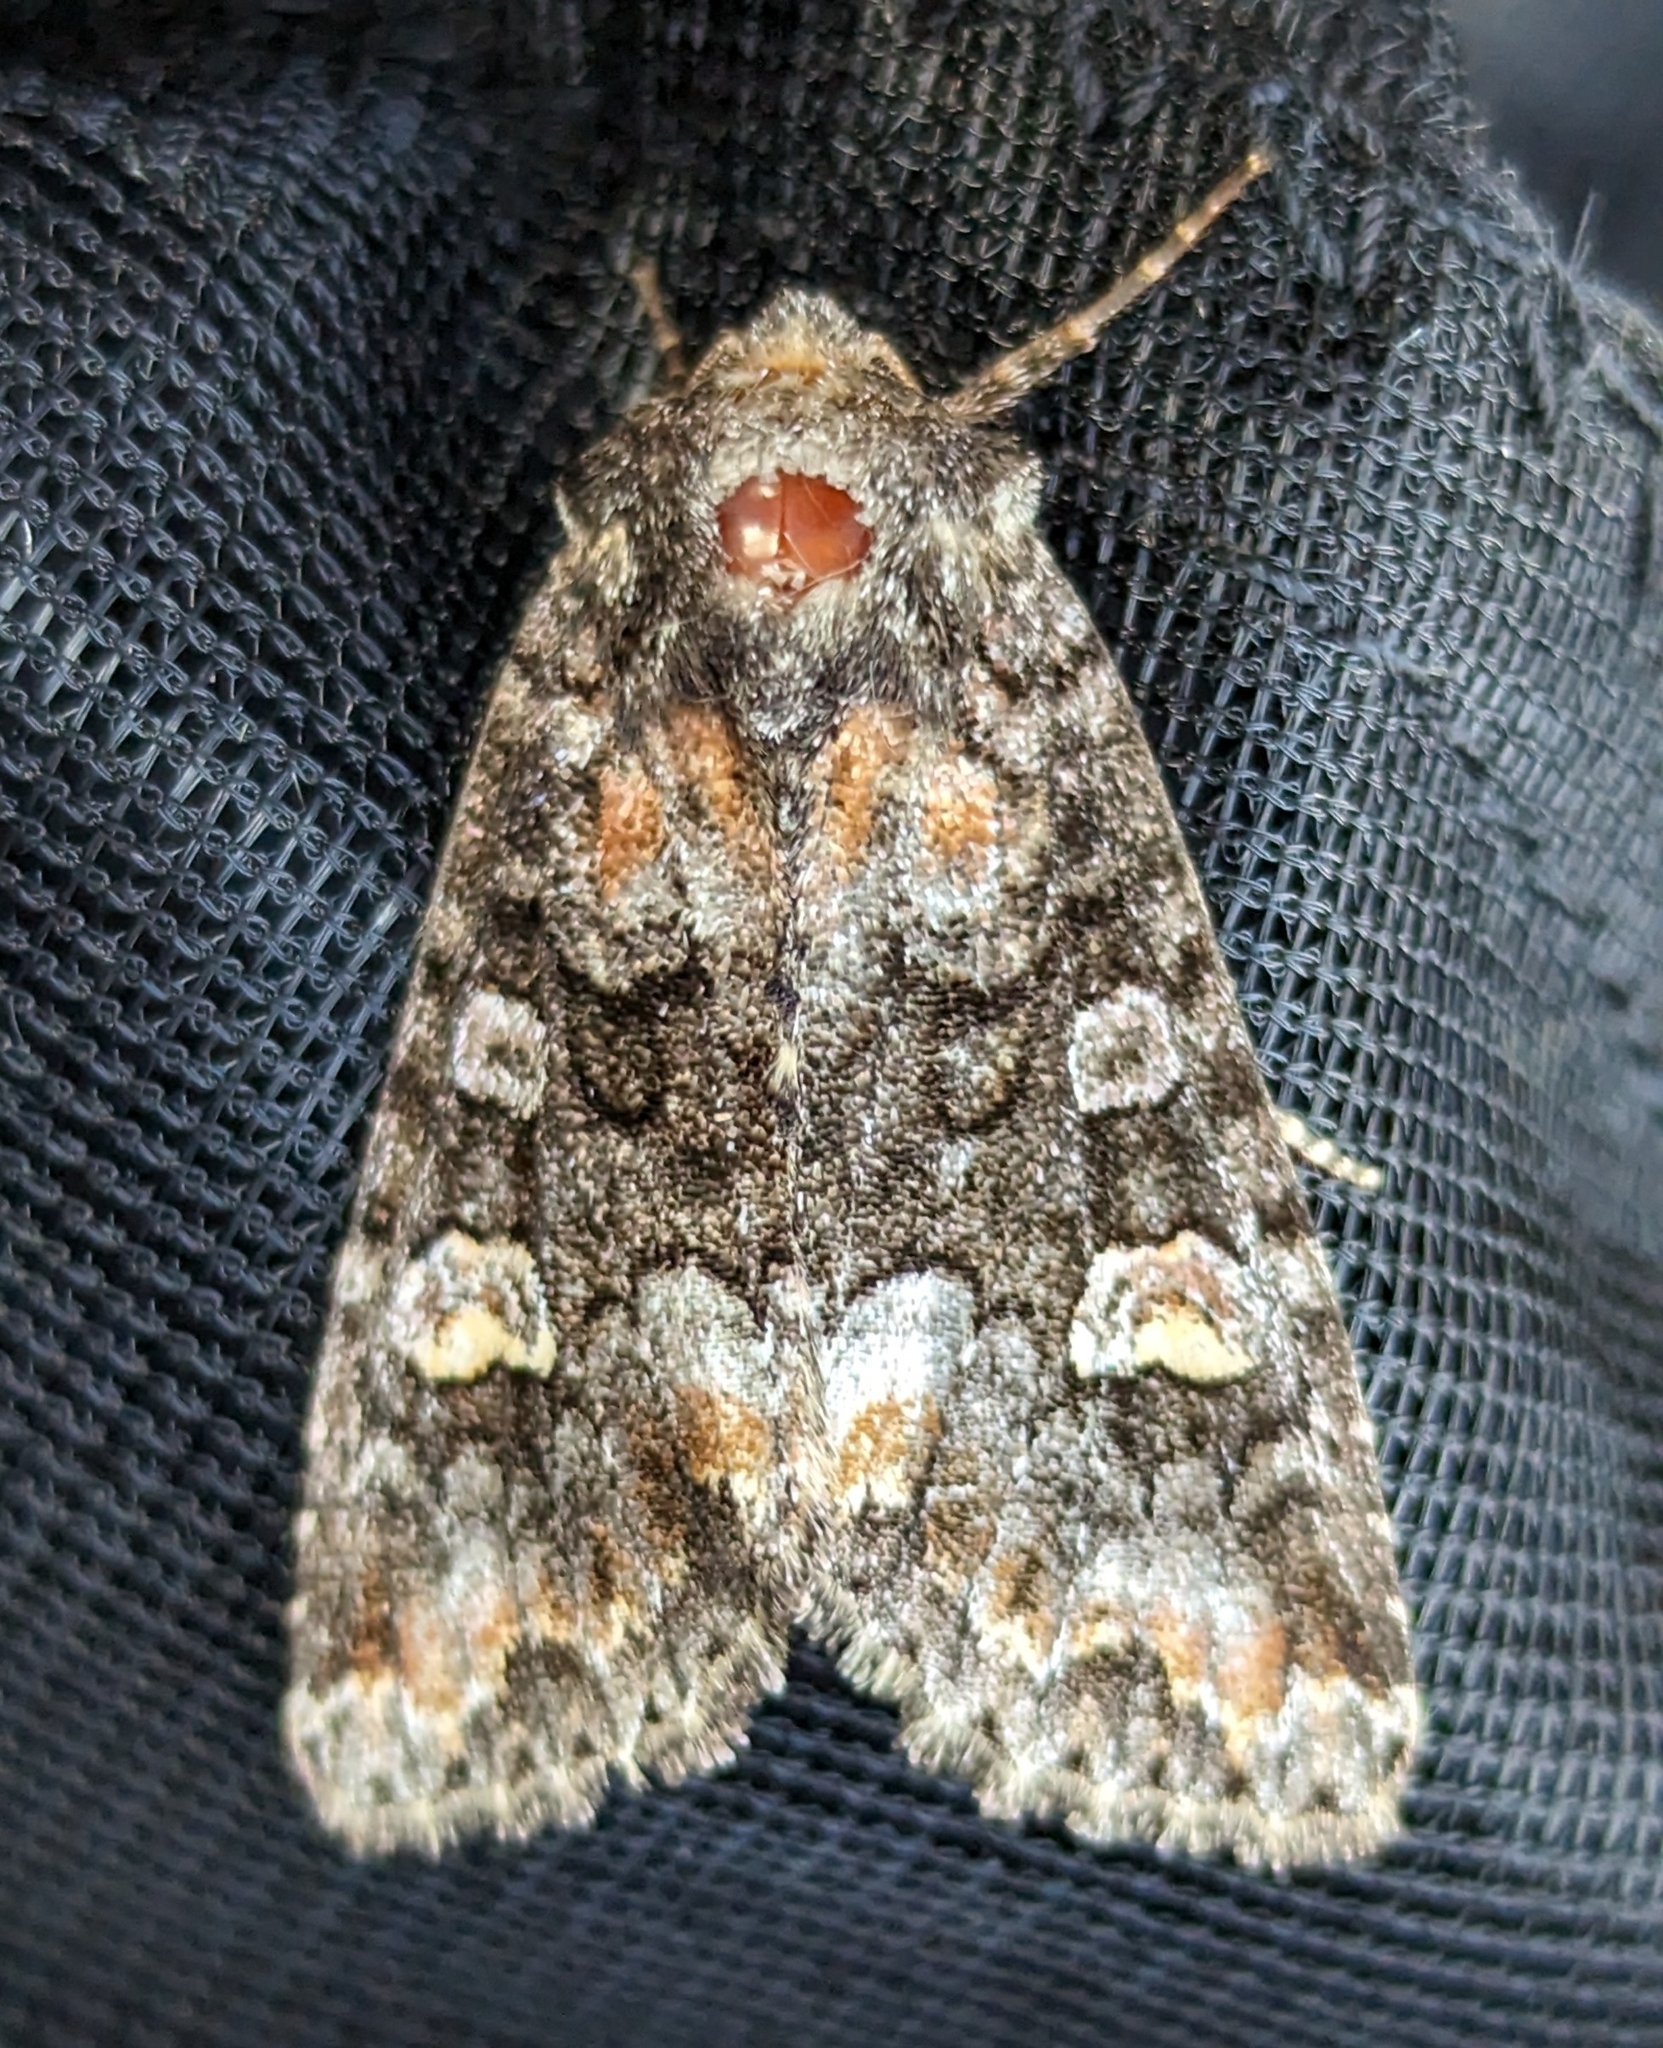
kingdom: Animalia
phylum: Arthropoda
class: Insecta
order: Lepidoptera
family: Noctuidae
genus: Spiramater
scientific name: Spiramater lutra
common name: Otter spiramater moth
